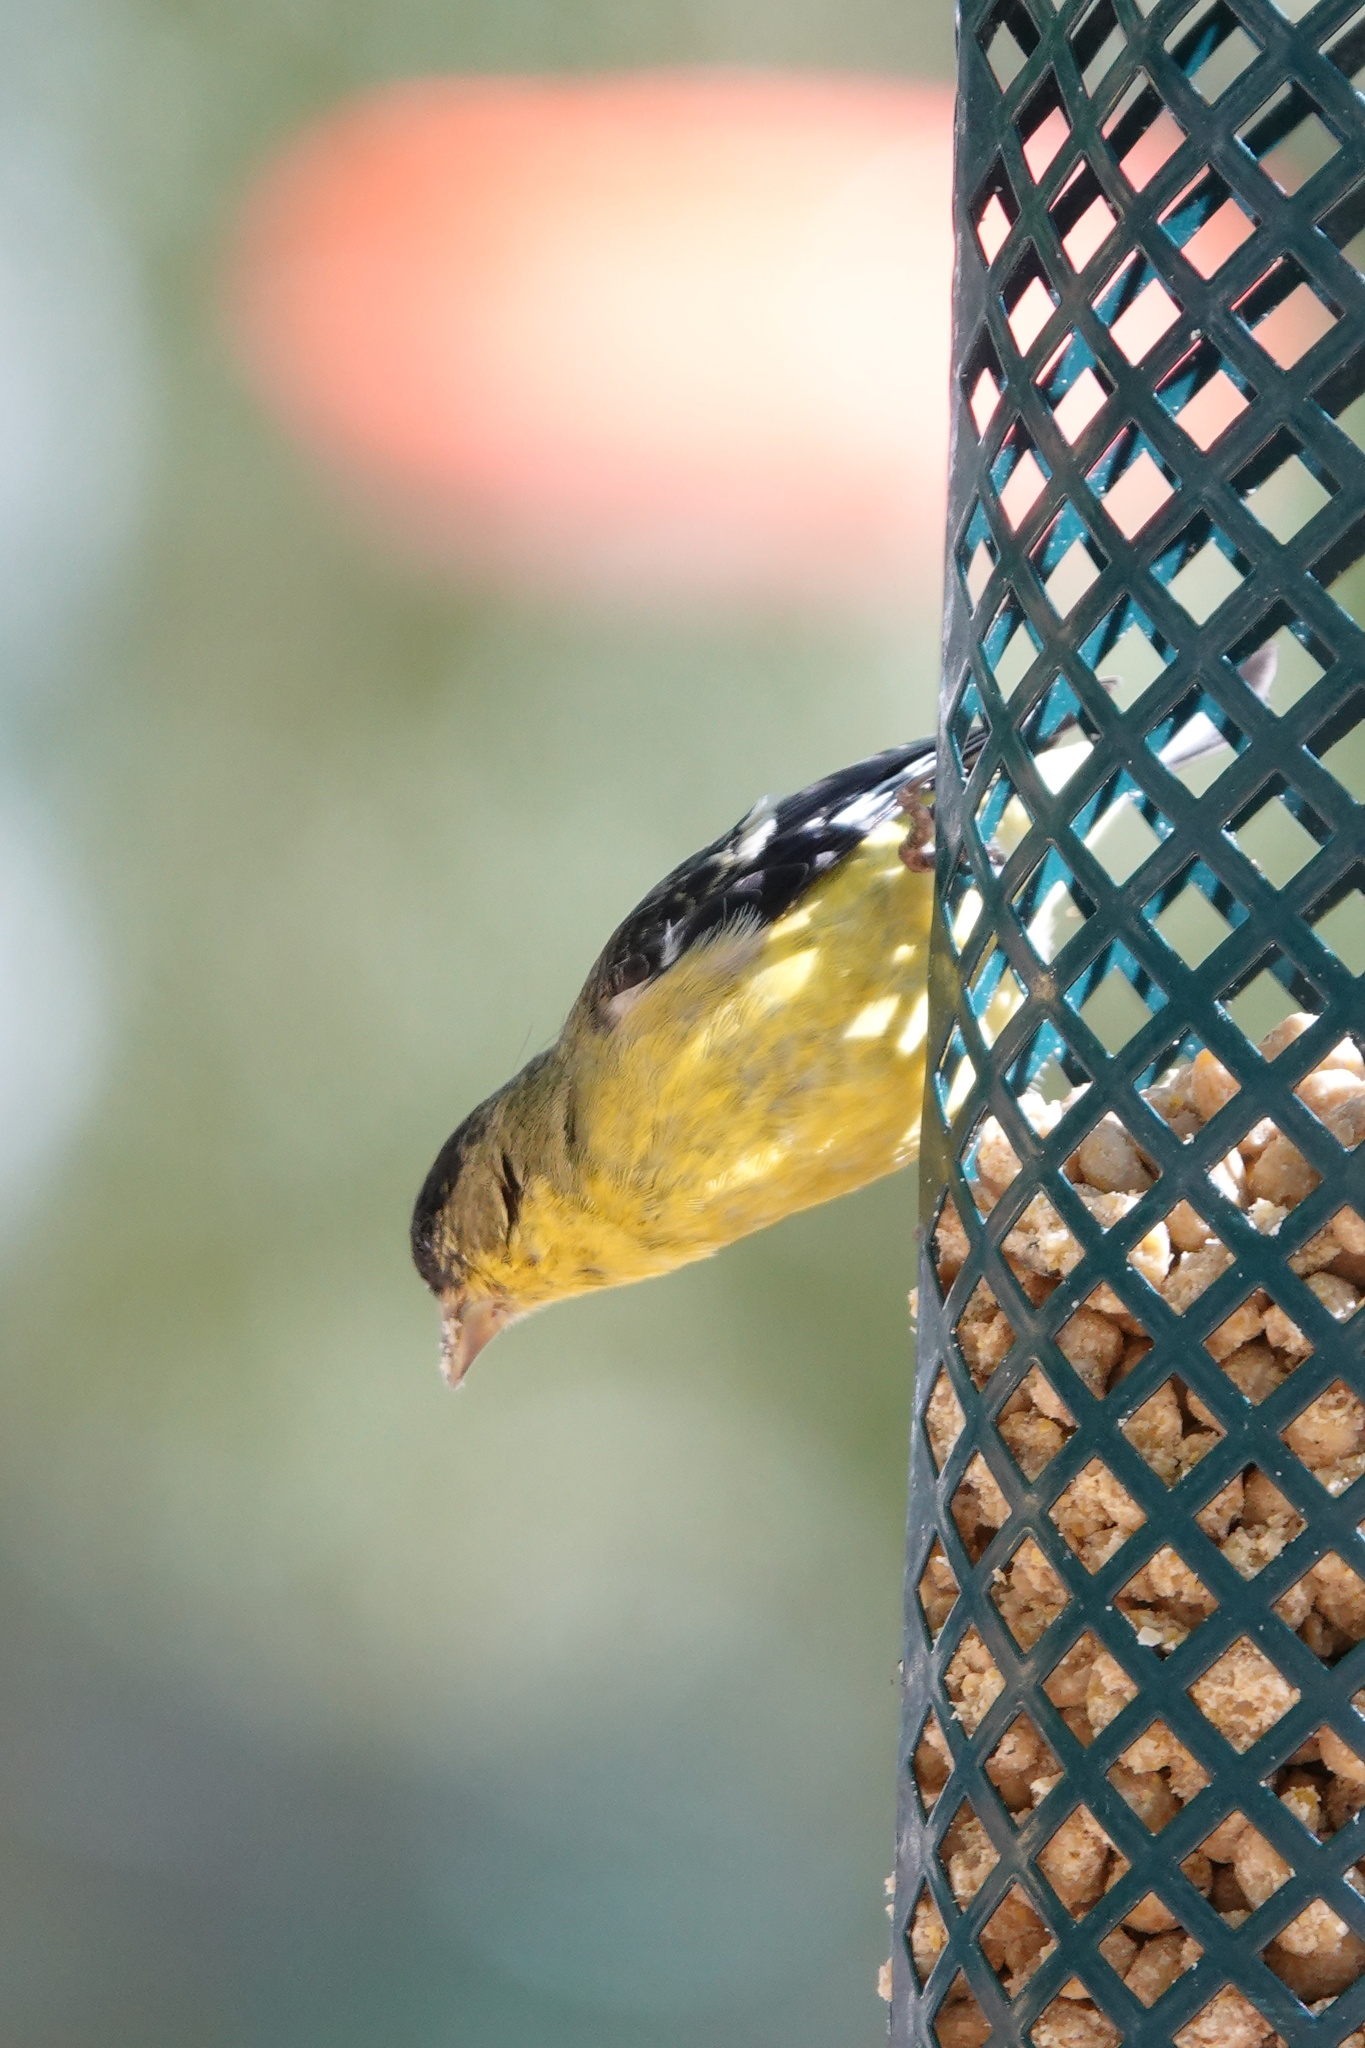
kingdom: Animalia
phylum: Chordata
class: Aves
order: Passeriformes
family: Fringillidae
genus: Spinus
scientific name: Spinus psaltria
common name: Lesser goldfinch
